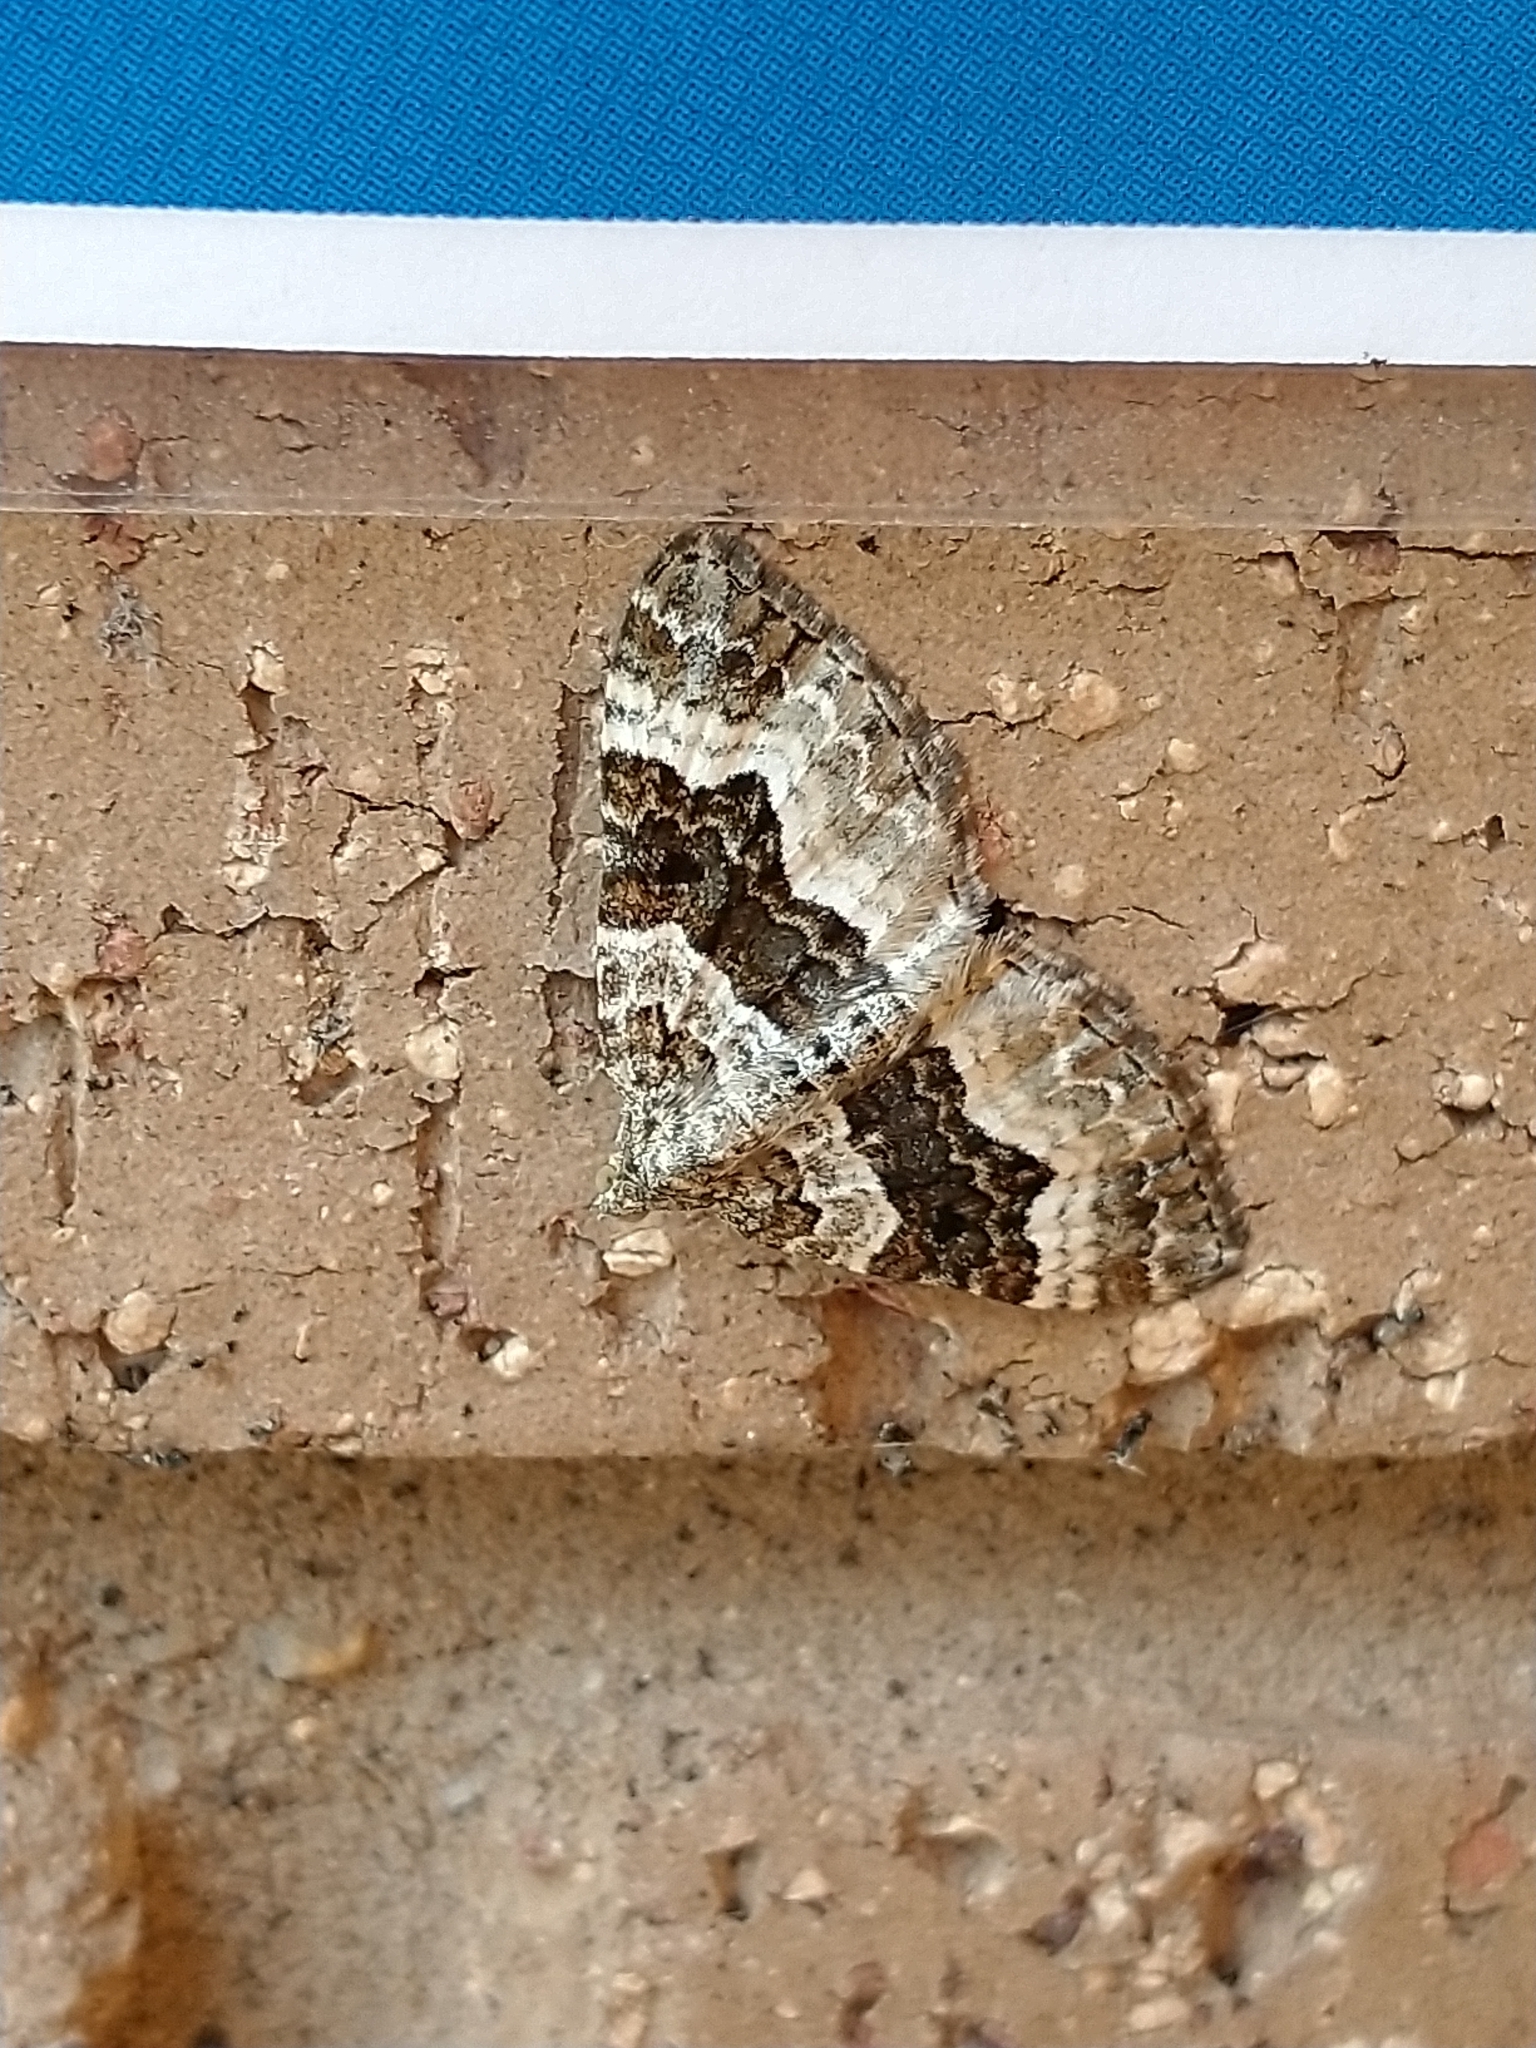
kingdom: Animalia
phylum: Arthropoda
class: Insecta
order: Lepidoptera
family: Geometridae
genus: Epirrhoe
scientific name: Epirrhoe alternata
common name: Common carpet
